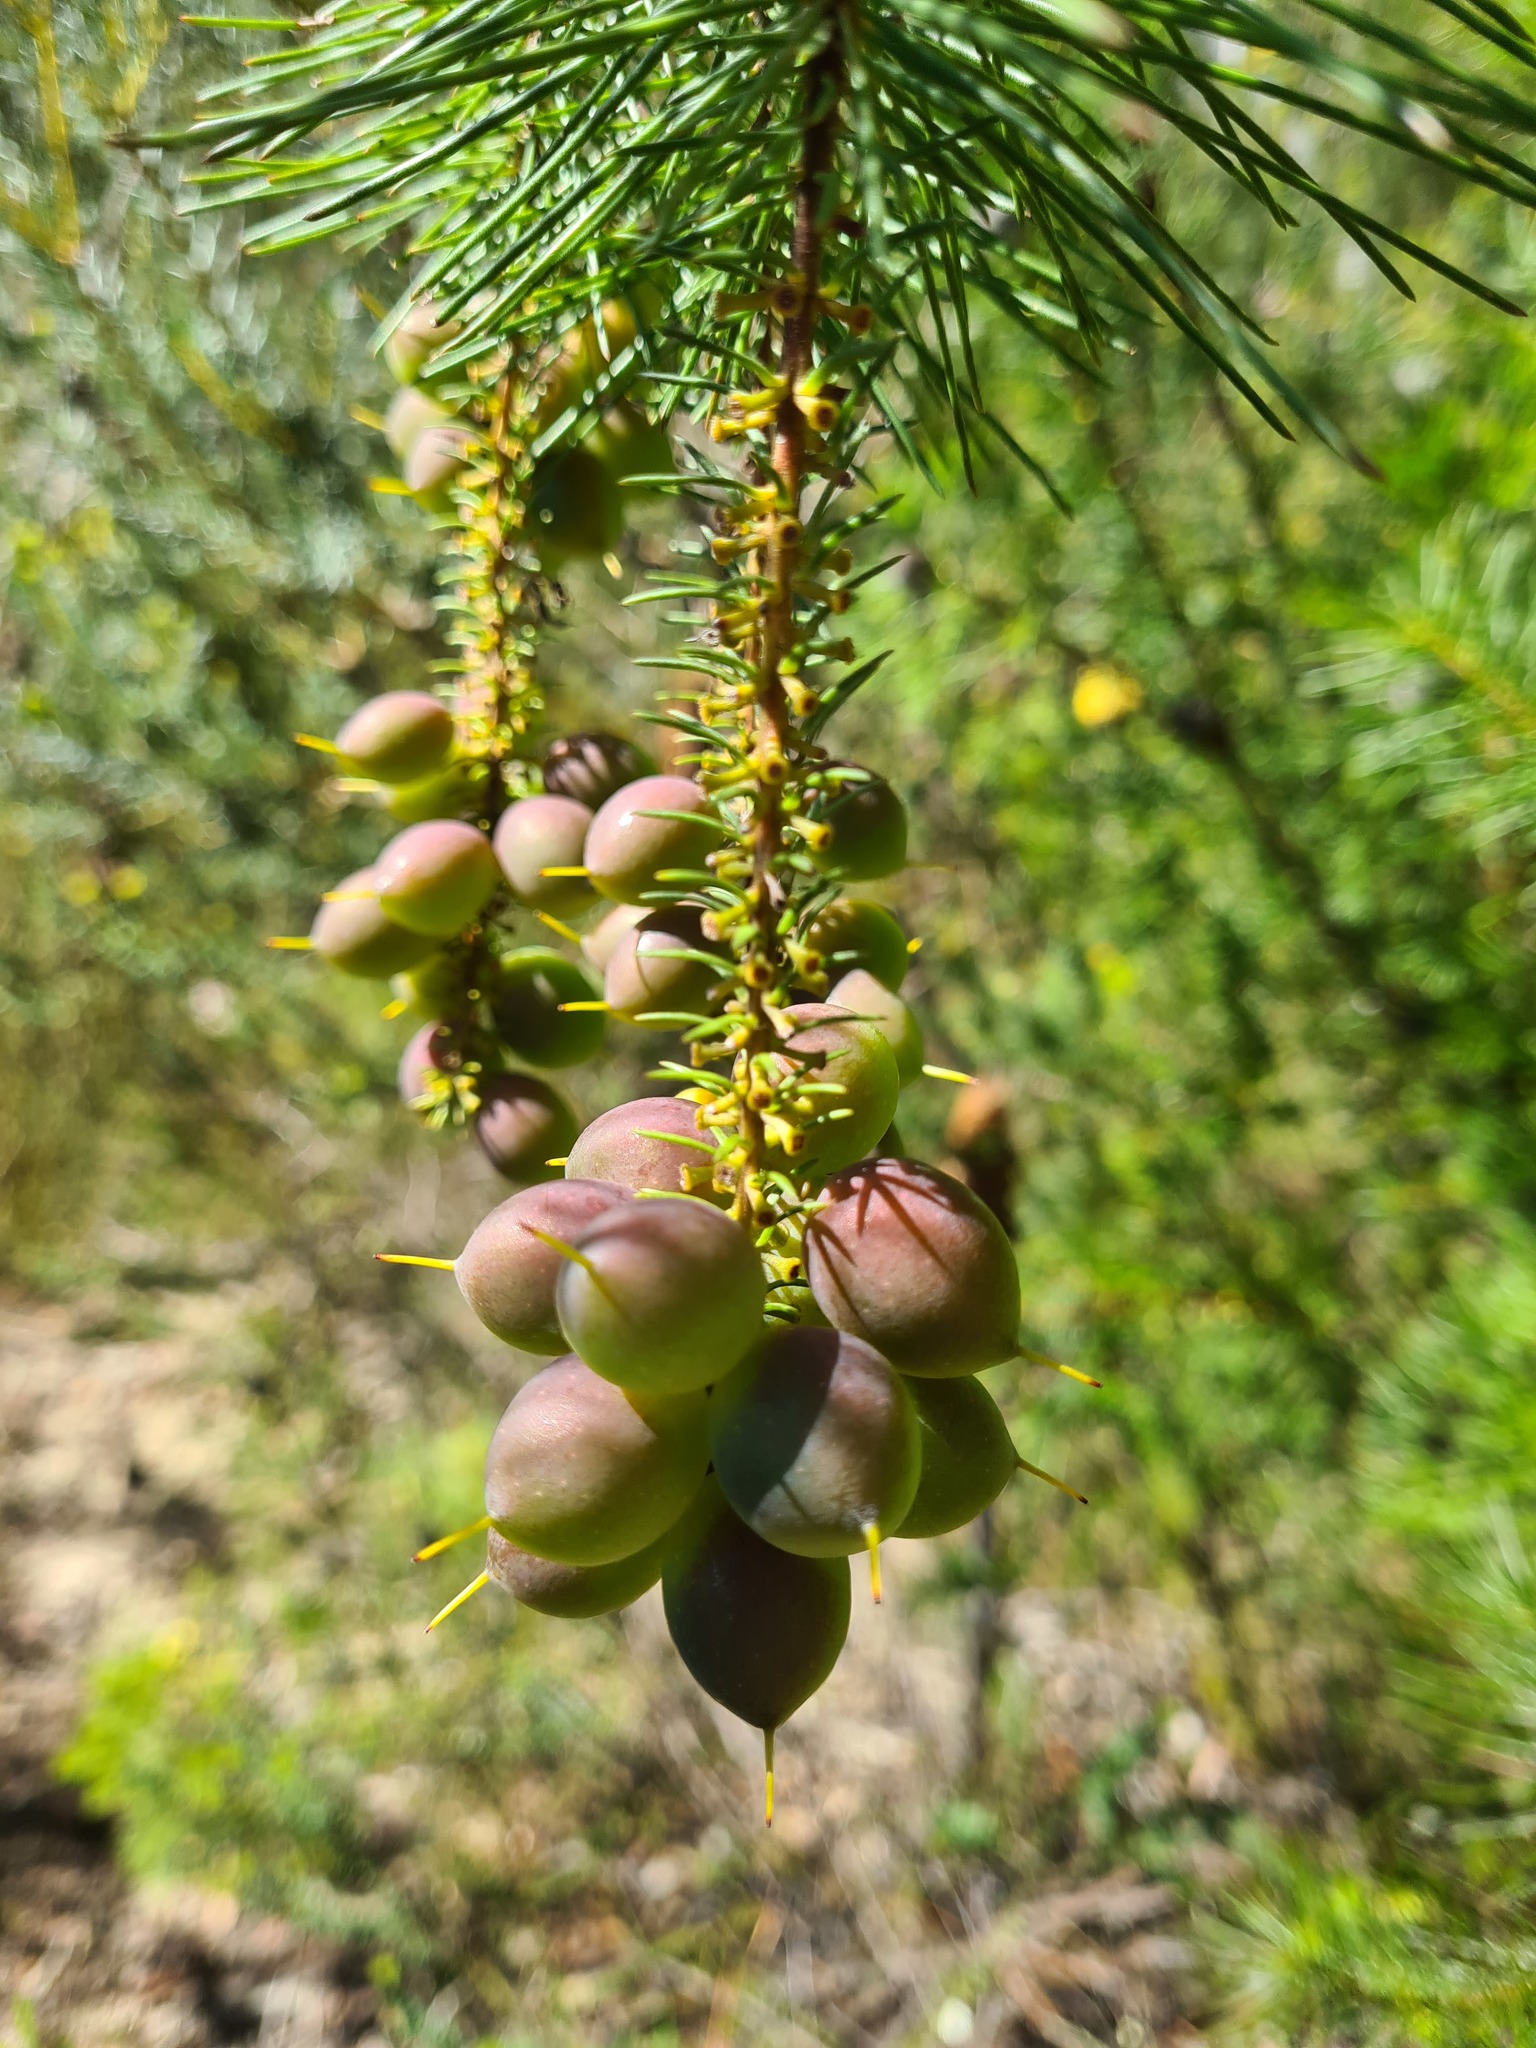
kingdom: Plantae
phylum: Tracheophyta
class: Magnoliopsida
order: Proteales
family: Proteaceae
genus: Persoonia
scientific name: Persoonia pinifolia
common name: Pine-leaf geebung
